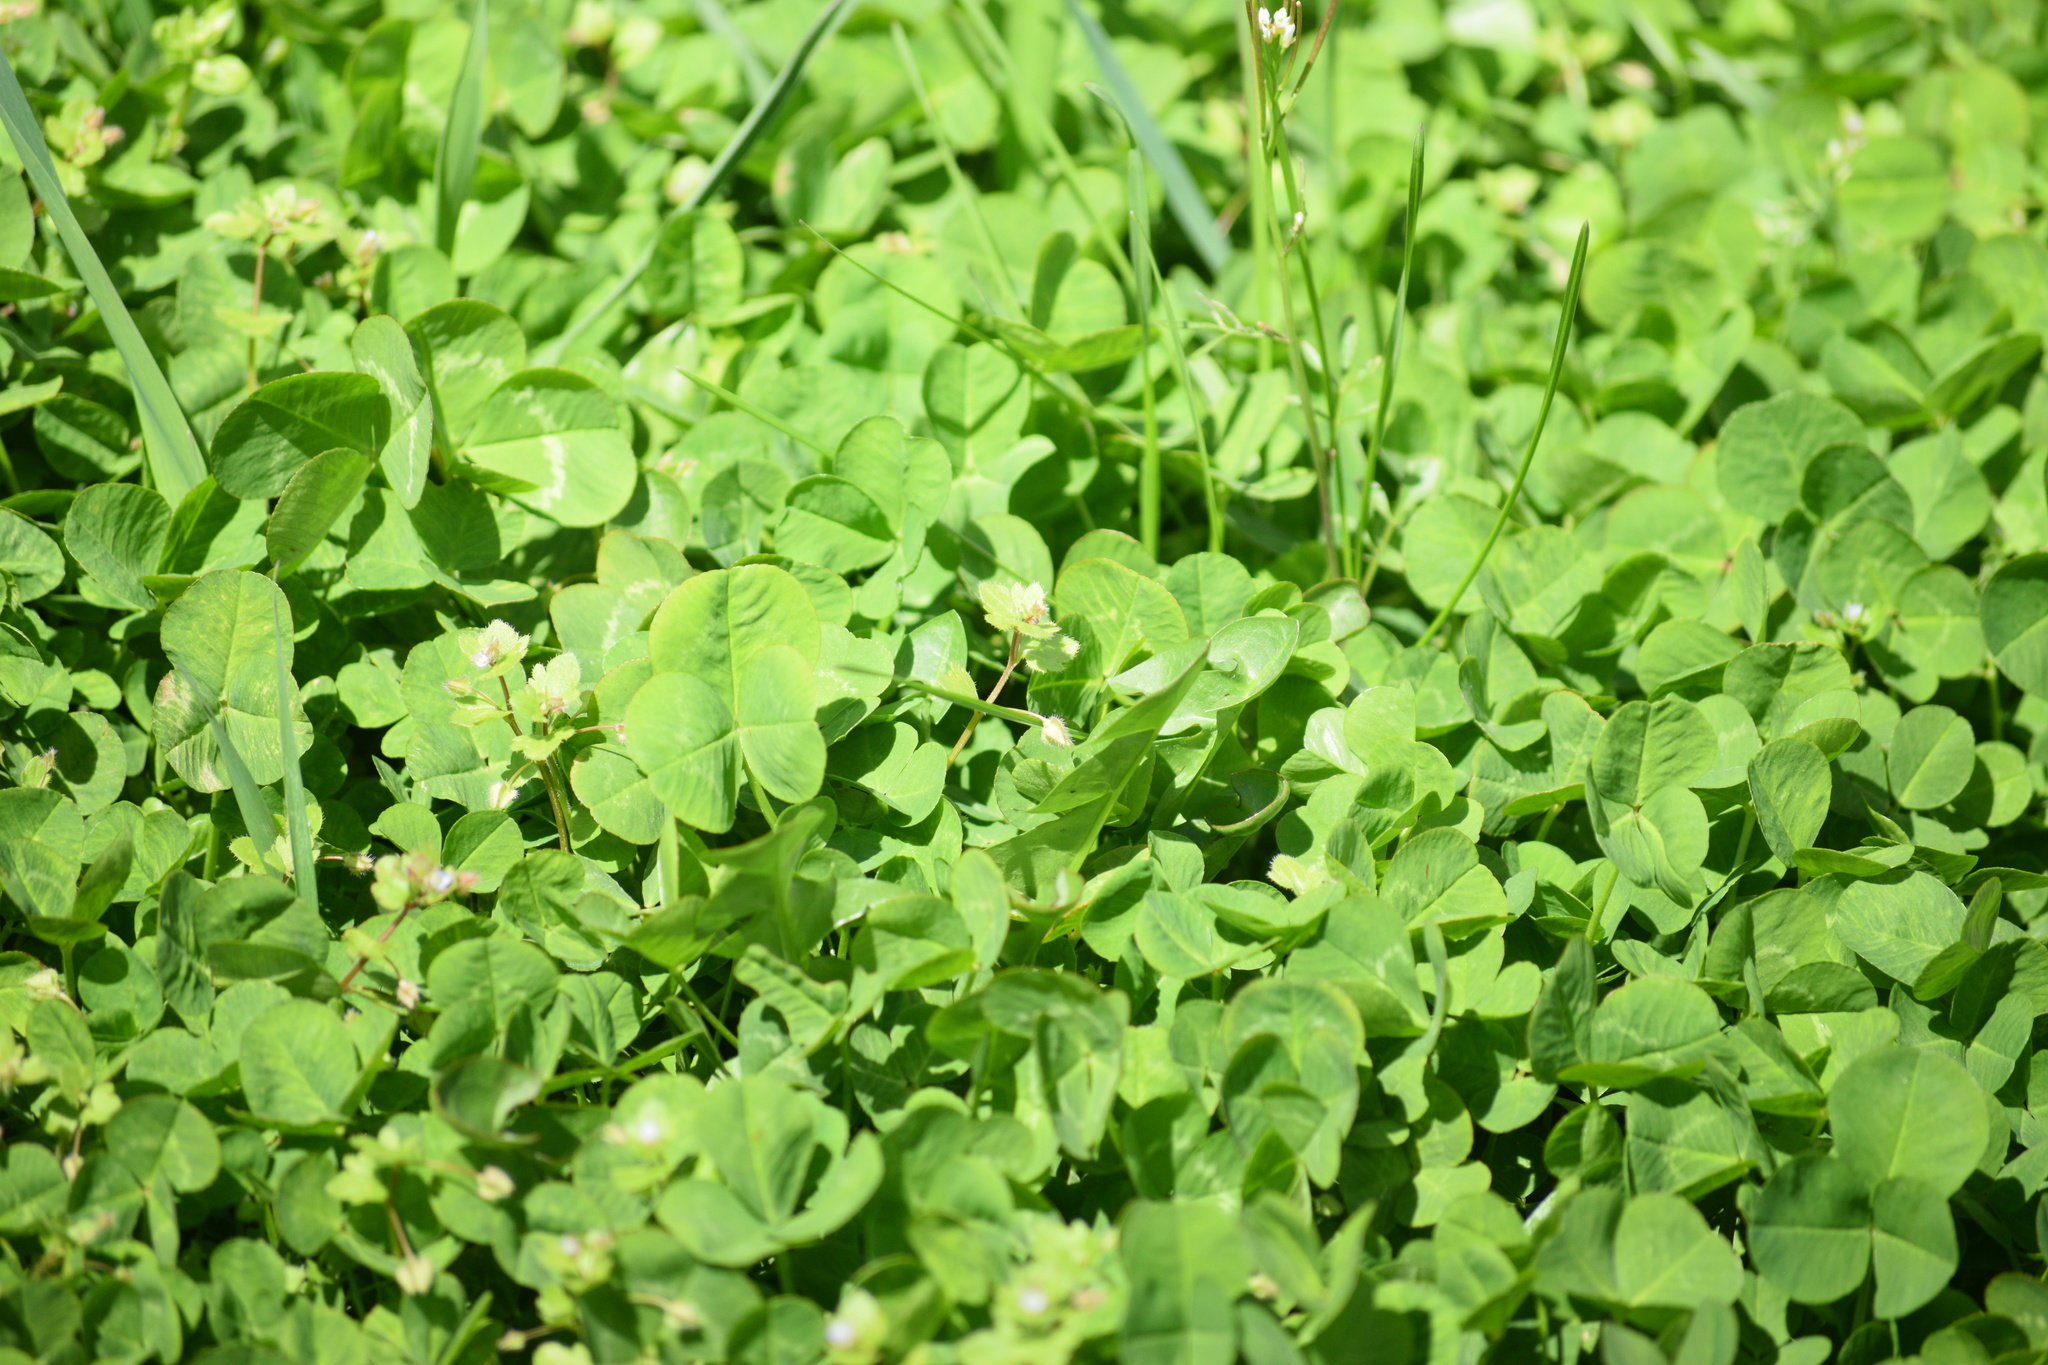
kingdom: Plantae
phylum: Tracheophyta
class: Magnoliopsida
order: Fabales
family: Fabaceae
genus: Trifolium
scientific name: Trifolium repens
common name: White clover
